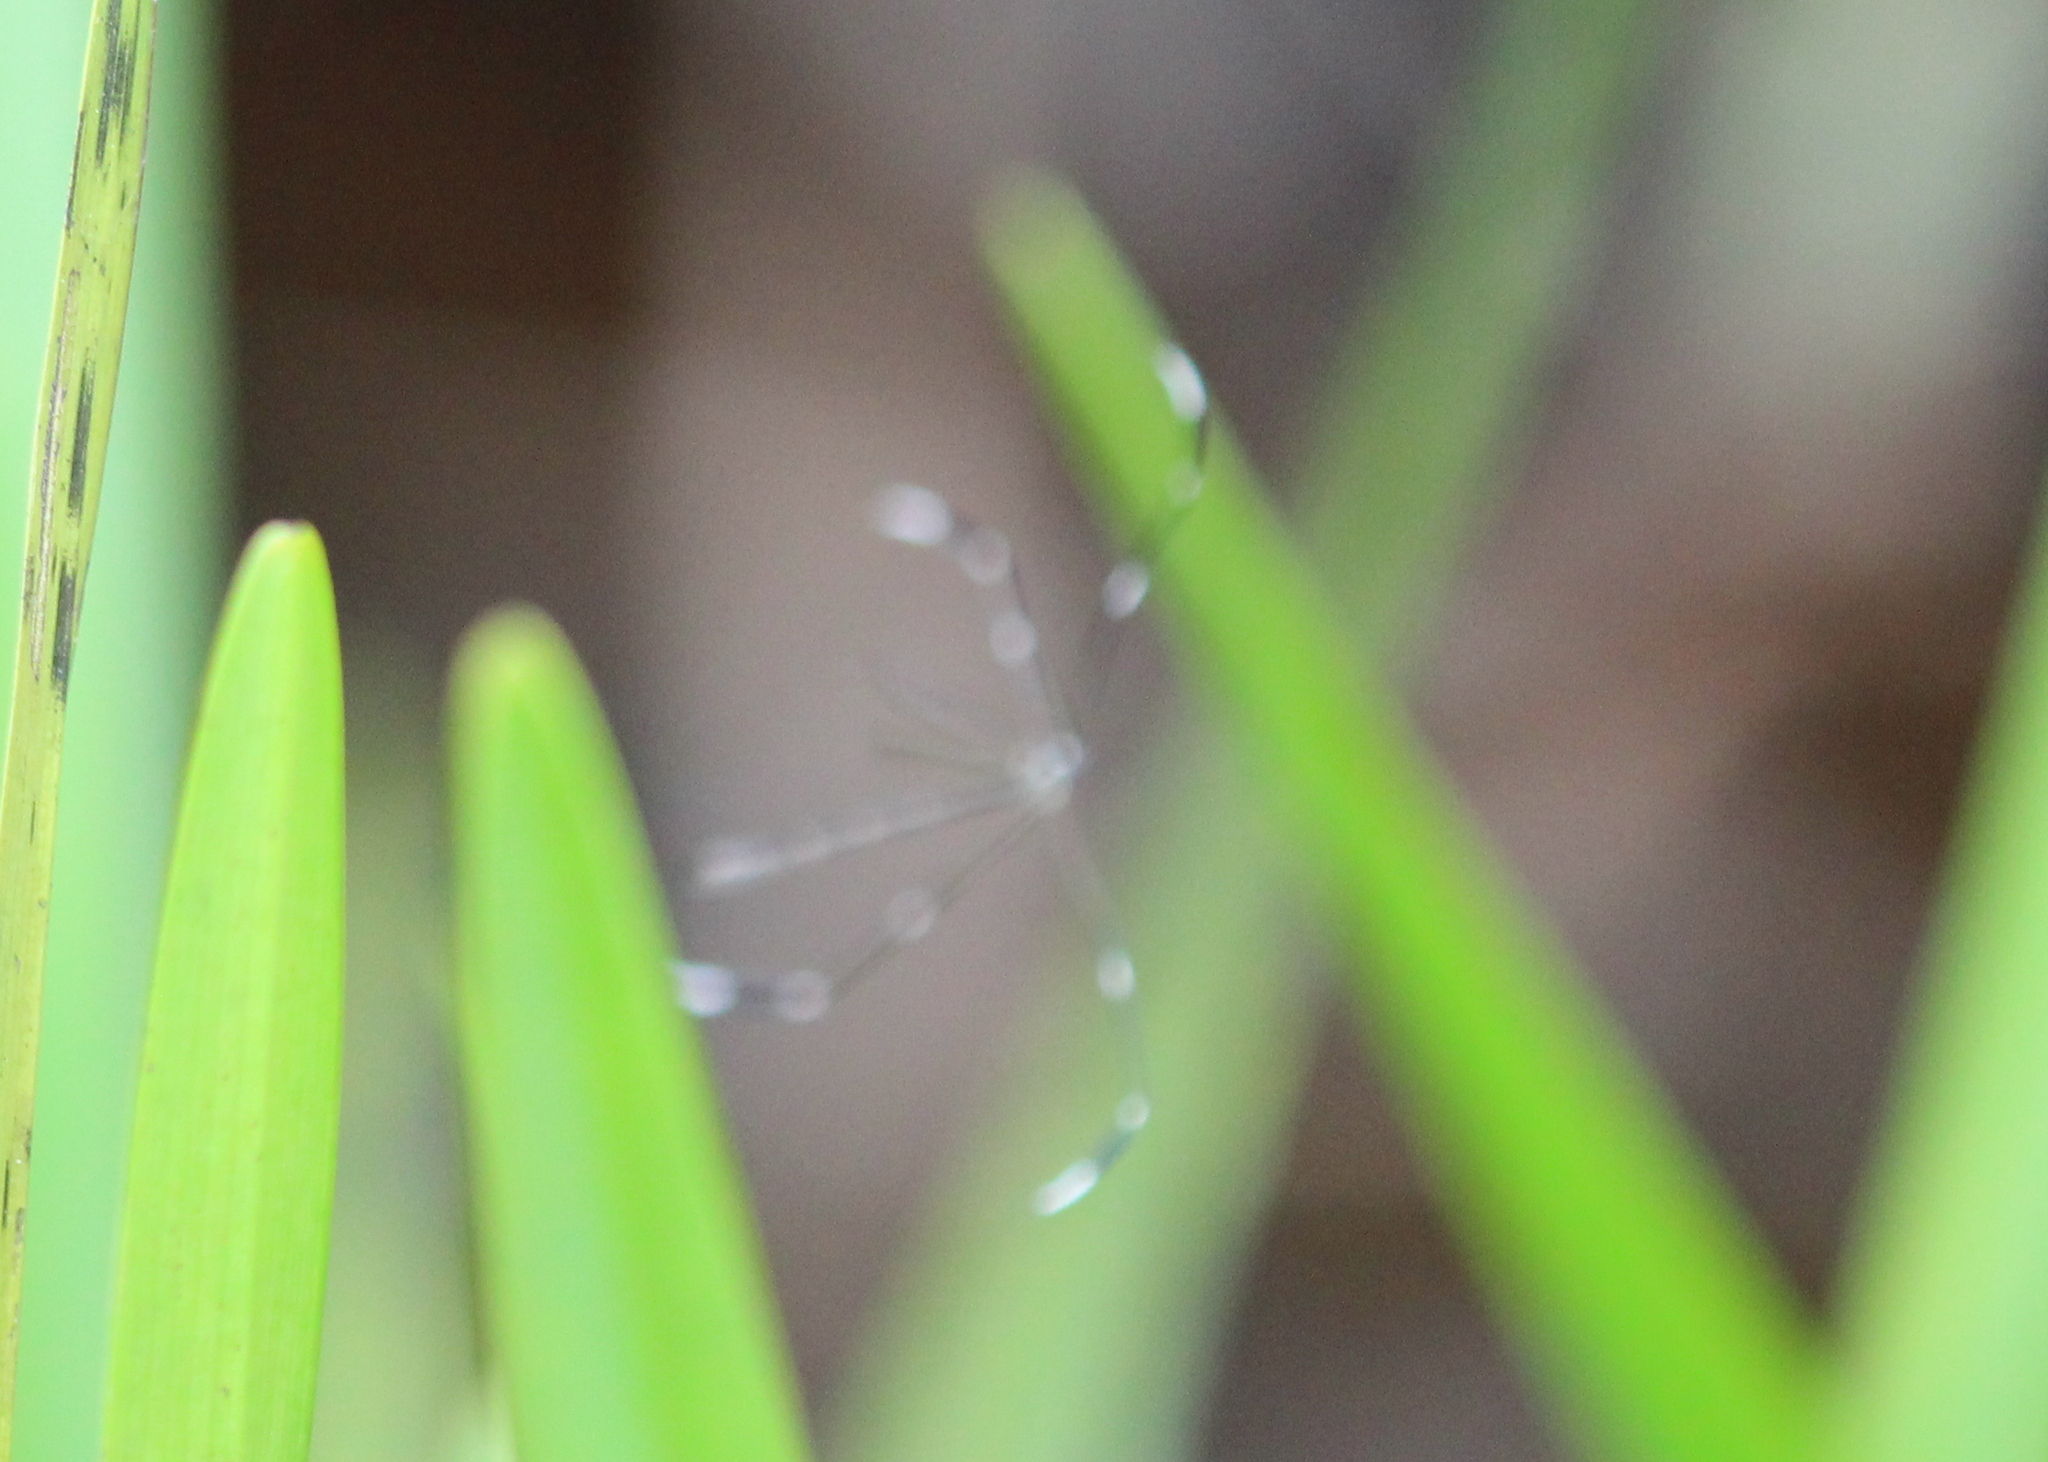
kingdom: Animalia
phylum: Arthropoda
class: Insecta
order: Diptera
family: Ptychopteridae
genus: Bittacomorpha
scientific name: Bittacomorpha clavipes
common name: Eastern phantom crane fly
